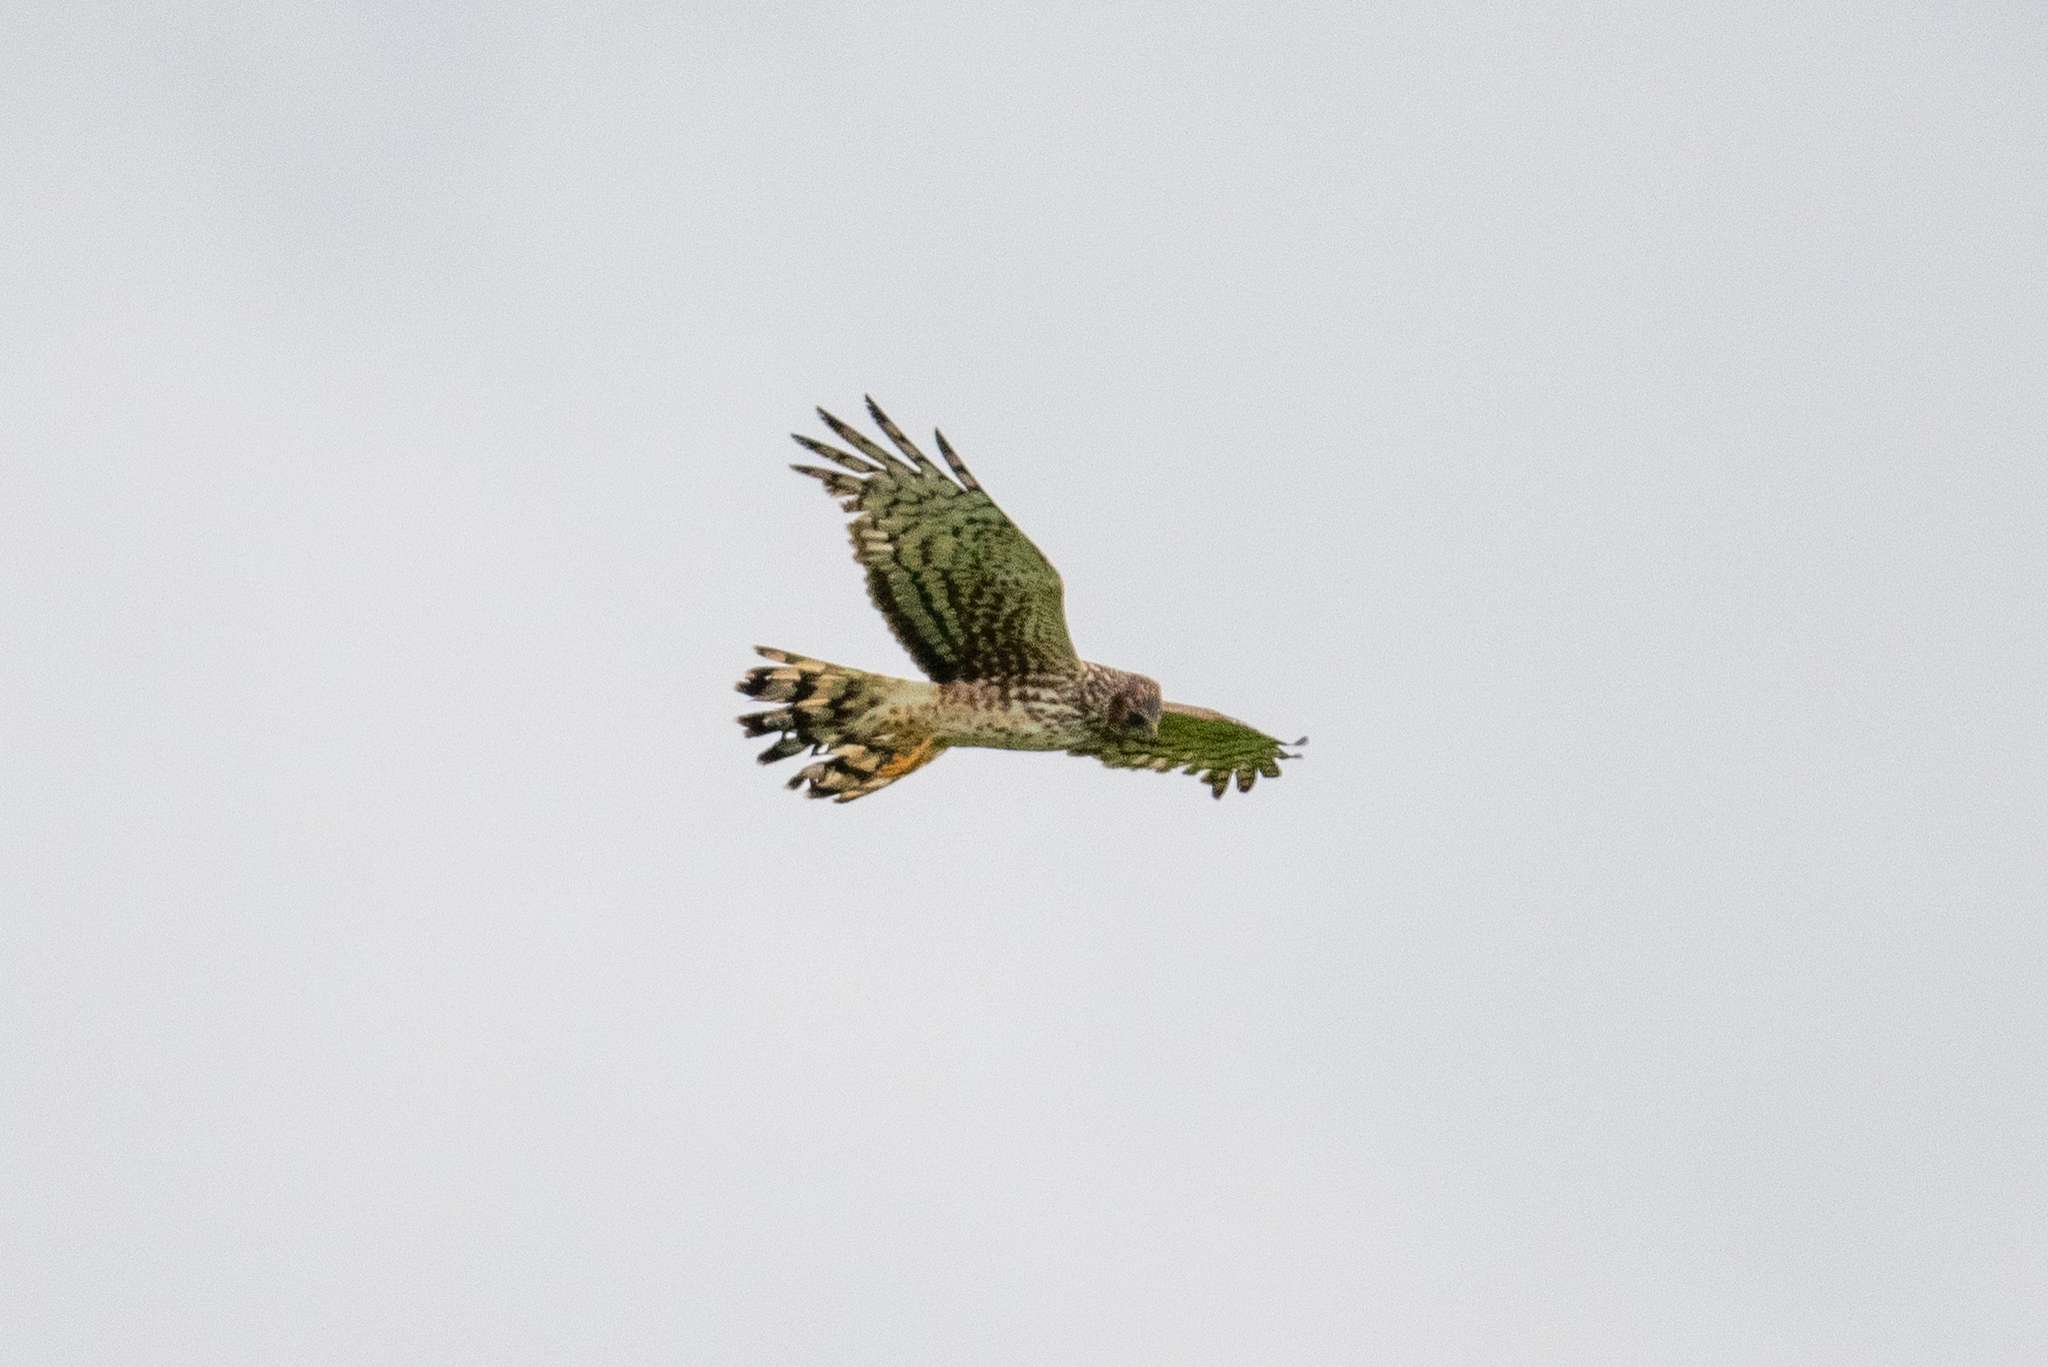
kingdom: Animalia
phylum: Chordata
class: Aves
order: Accipitriformes
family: Accipitridae
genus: Circus
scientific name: Circus cyaneus
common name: Hen harrier
